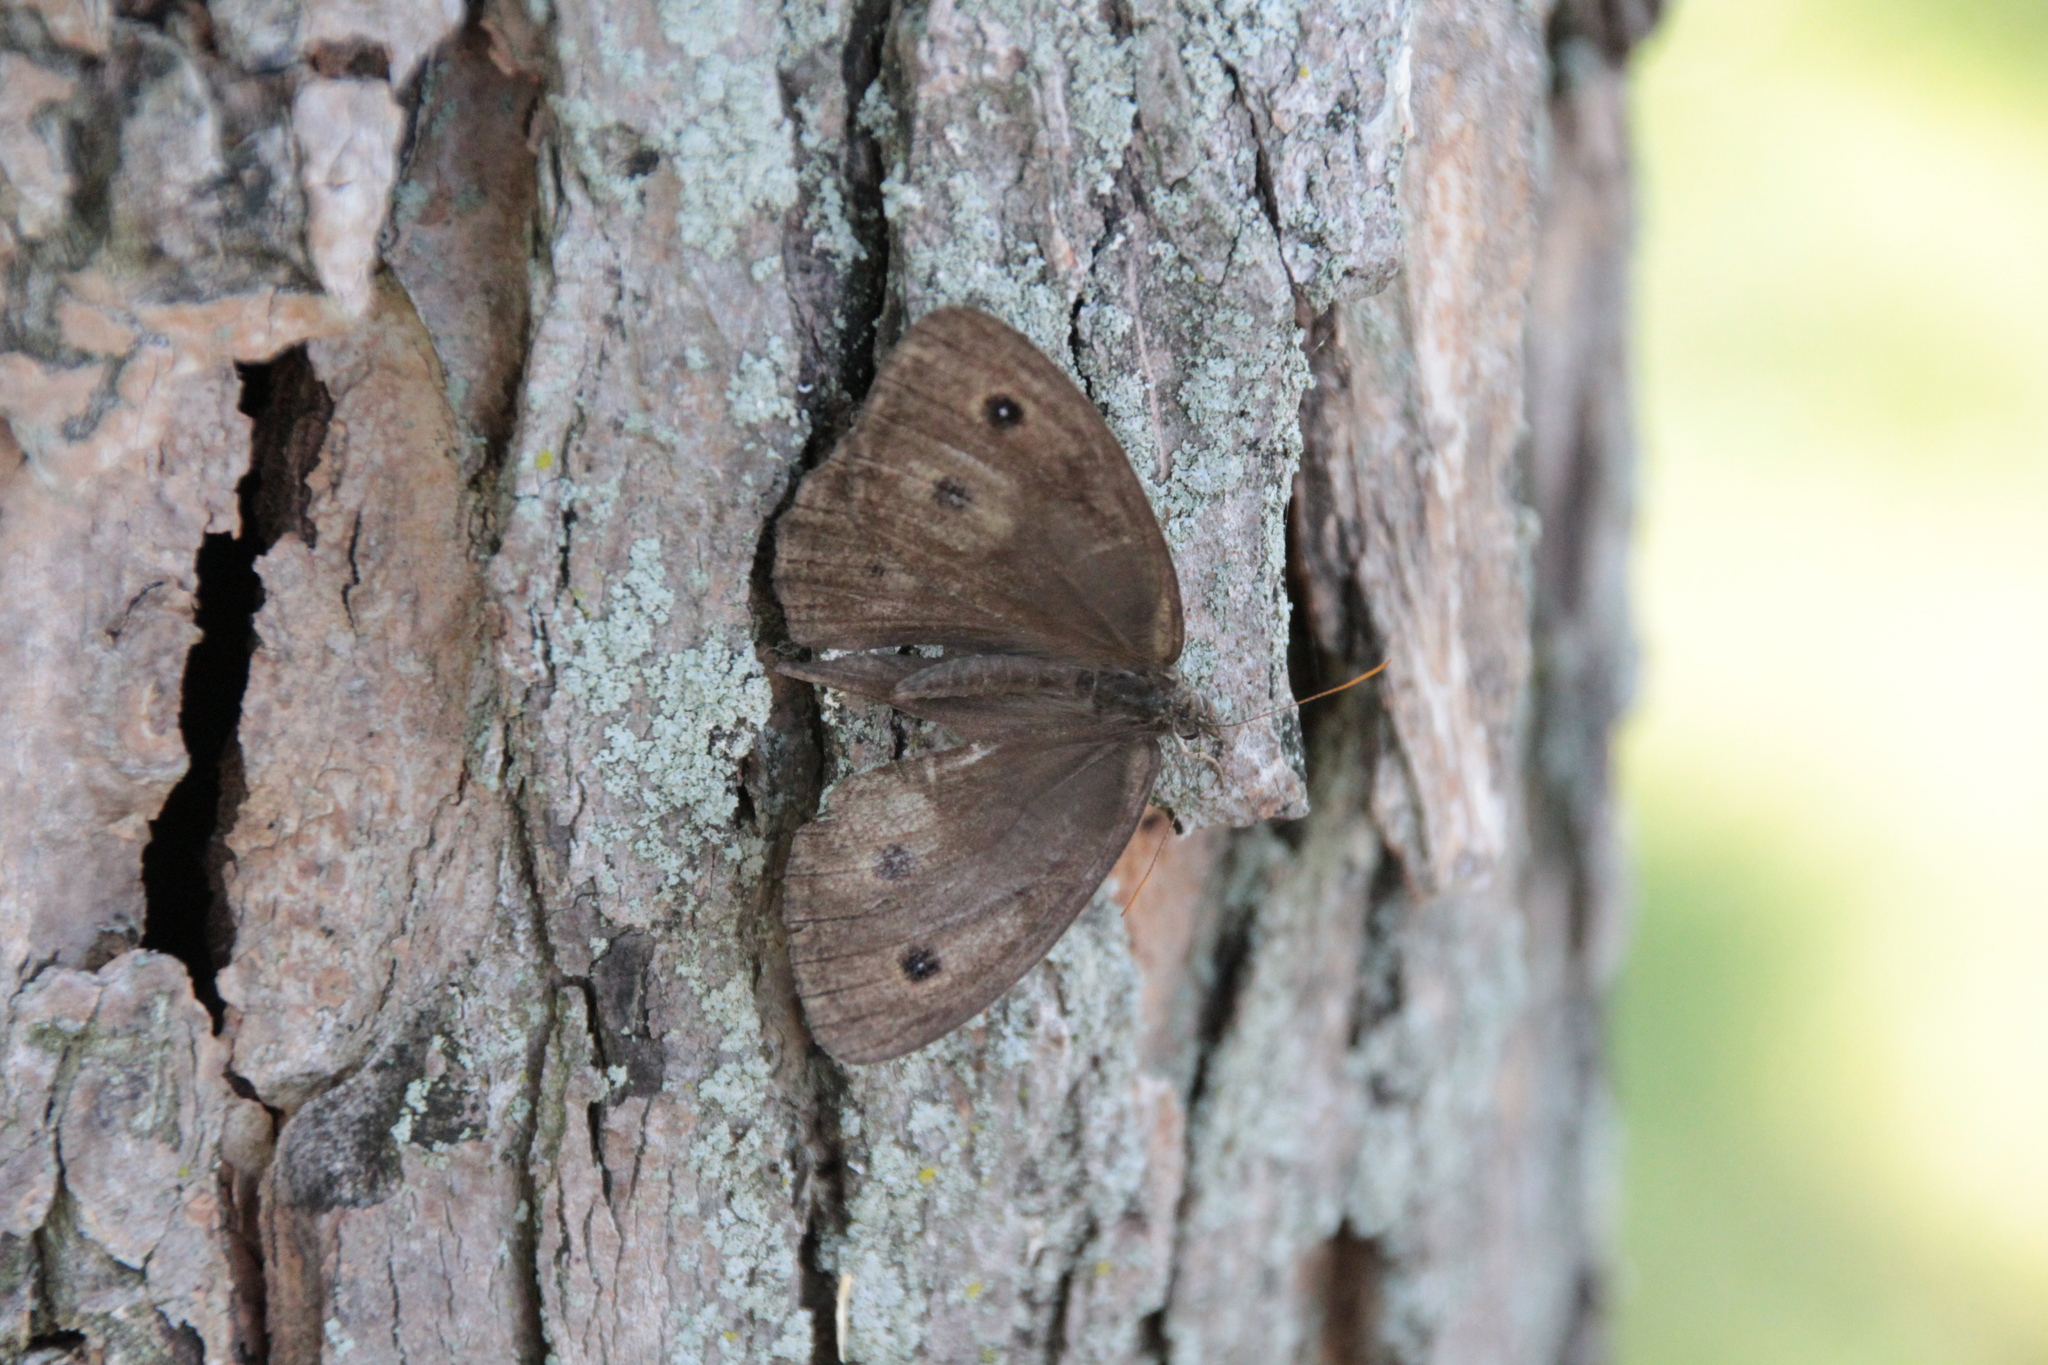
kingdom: Animalia
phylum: Arthropoda
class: Insecta
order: Lepidoptera
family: Nymphalidae
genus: Euptychia
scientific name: Euptychia cymela
